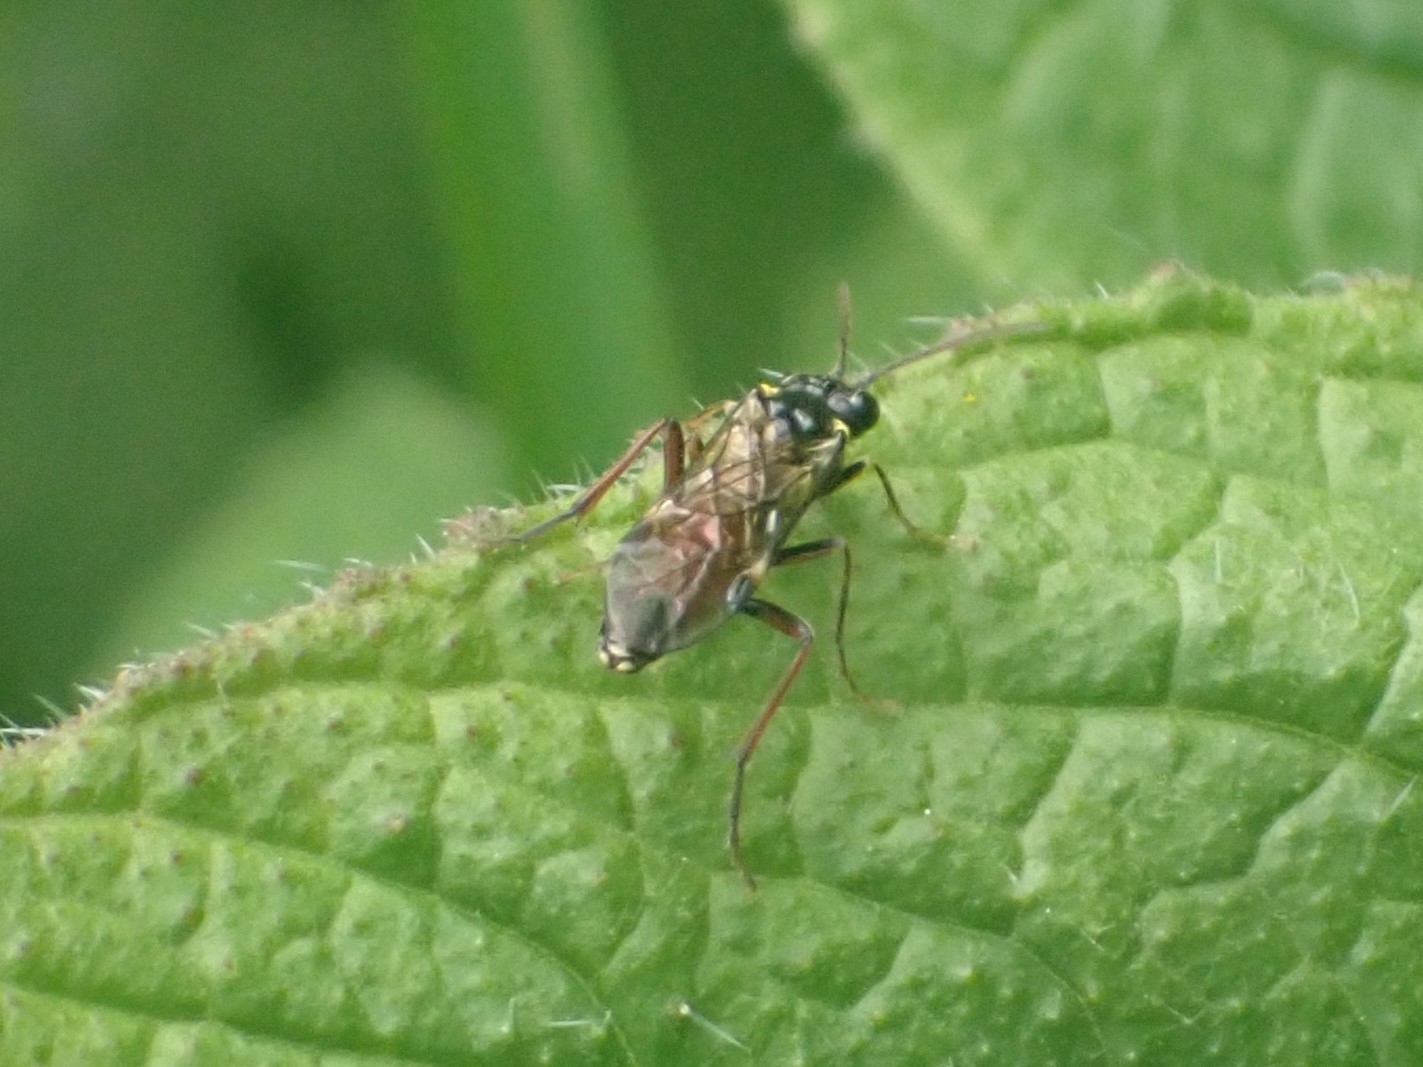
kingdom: Animalia
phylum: Arthropoda
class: Insecta
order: Hymenoptera
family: Tenthredinidae
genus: Aglaostigma
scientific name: Aglaostigma aucupariae
